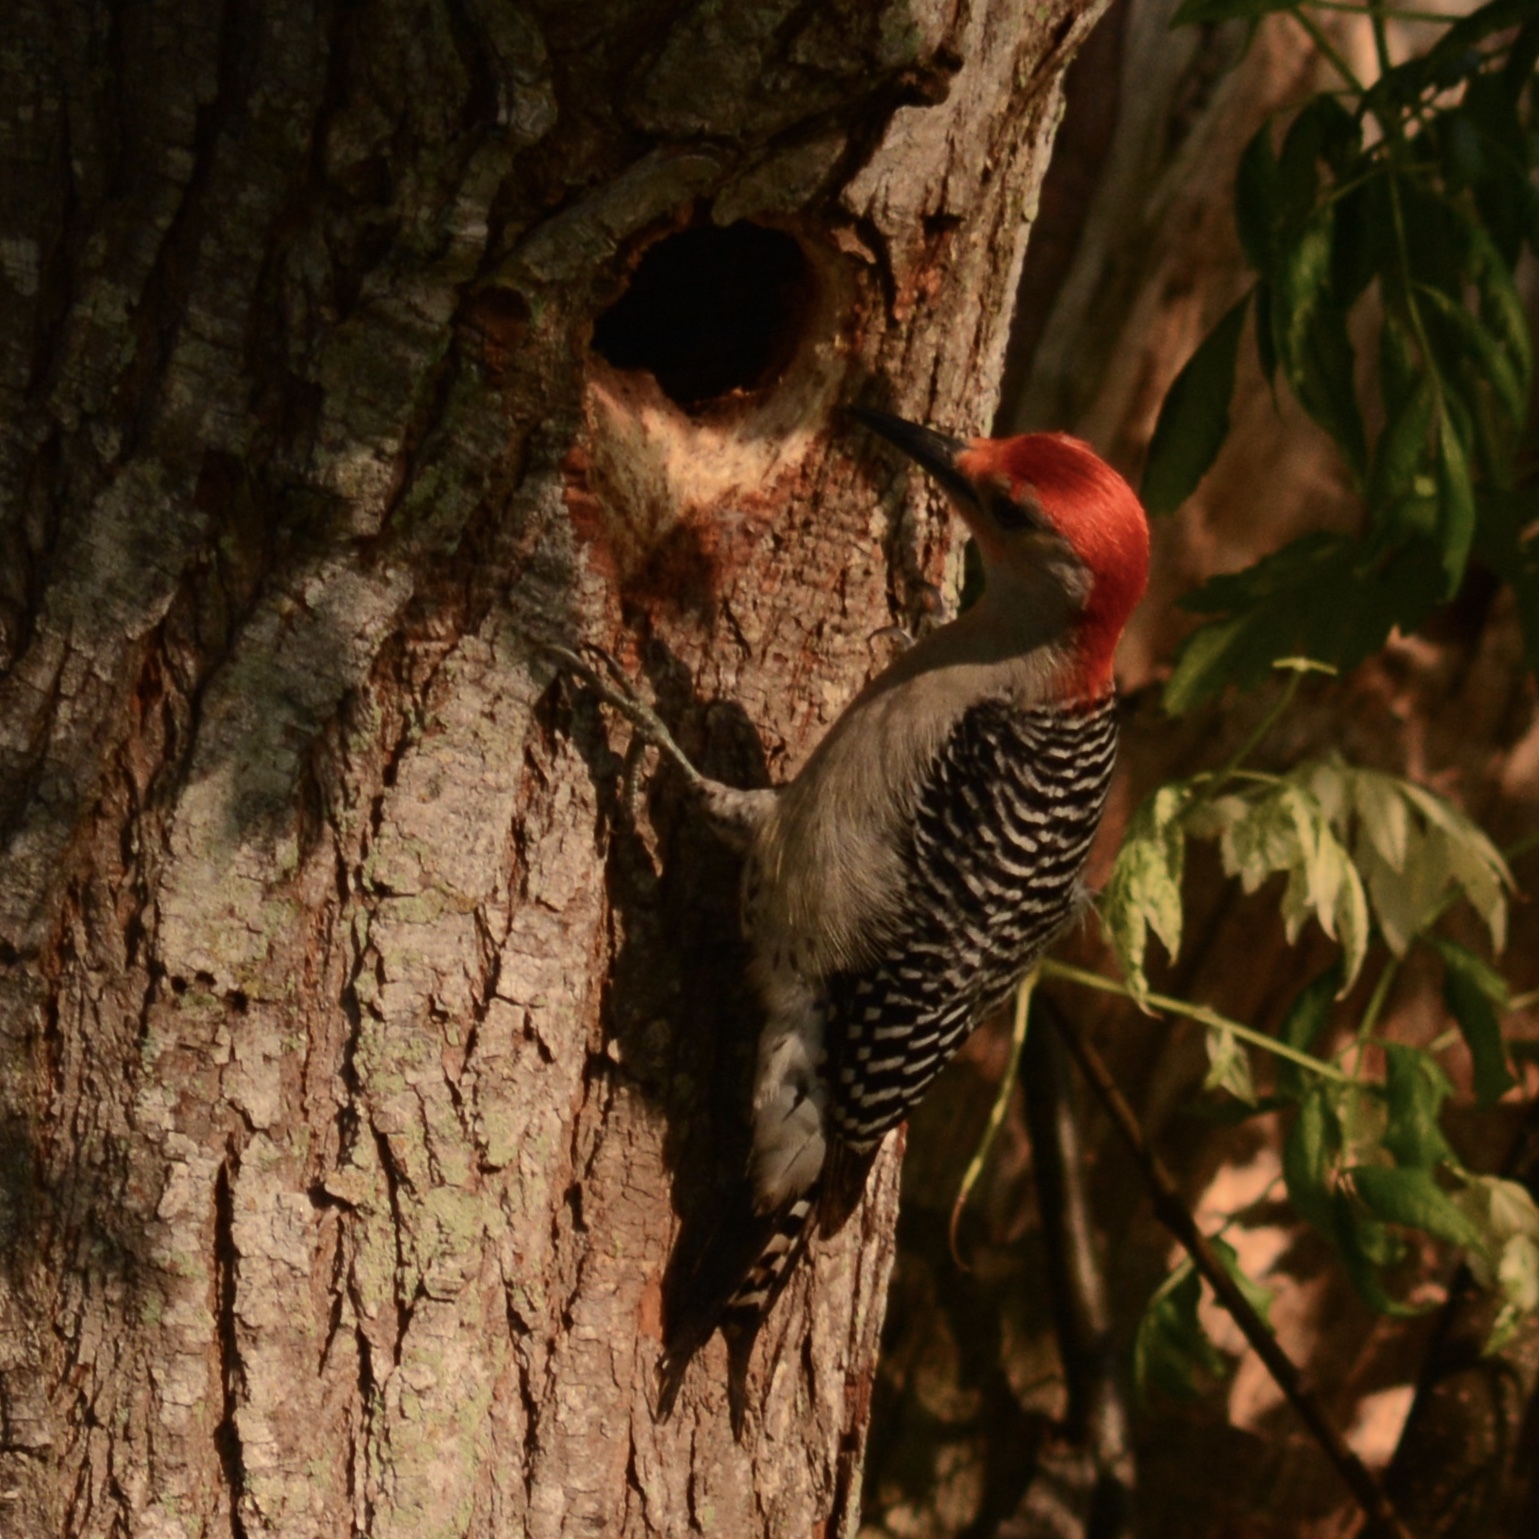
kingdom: Animalia
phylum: Chordata
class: Aves
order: Piciformes
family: Picidae
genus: Melanerpes
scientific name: Melanerpes carolinus
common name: Red-bellied woodpecker
